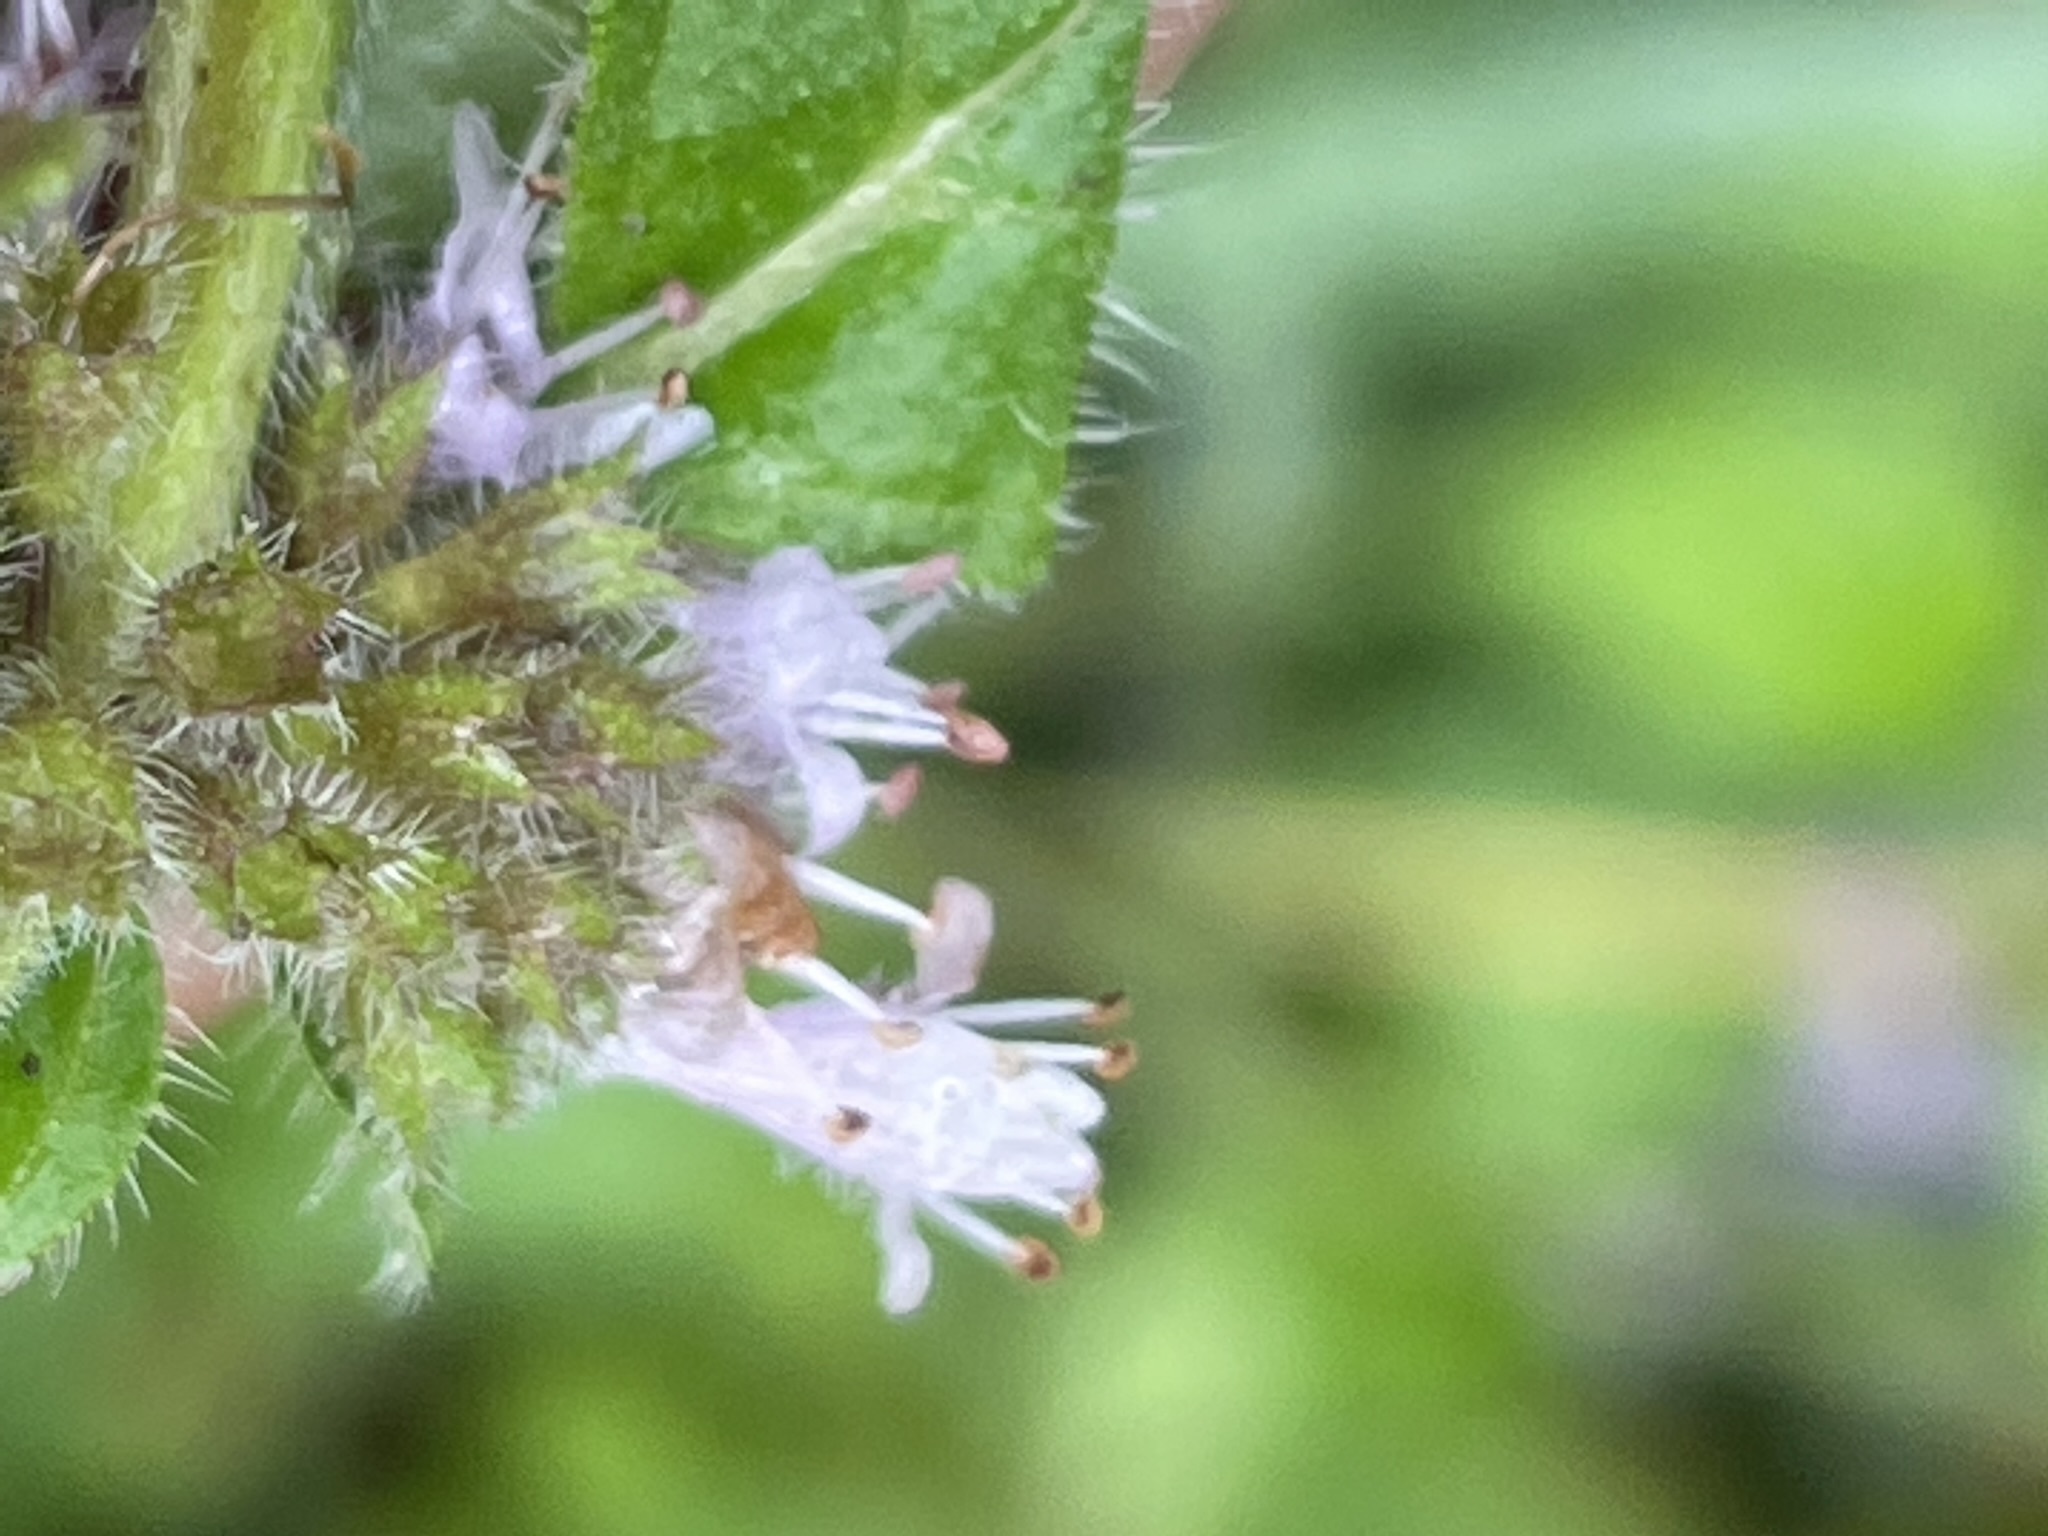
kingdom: Plantae
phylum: Tracheophyta
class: Magnoliopsida
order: Lamiales
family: Lamiaceae
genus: Mentha
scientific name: Mentha arvensis
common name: Corn mint
